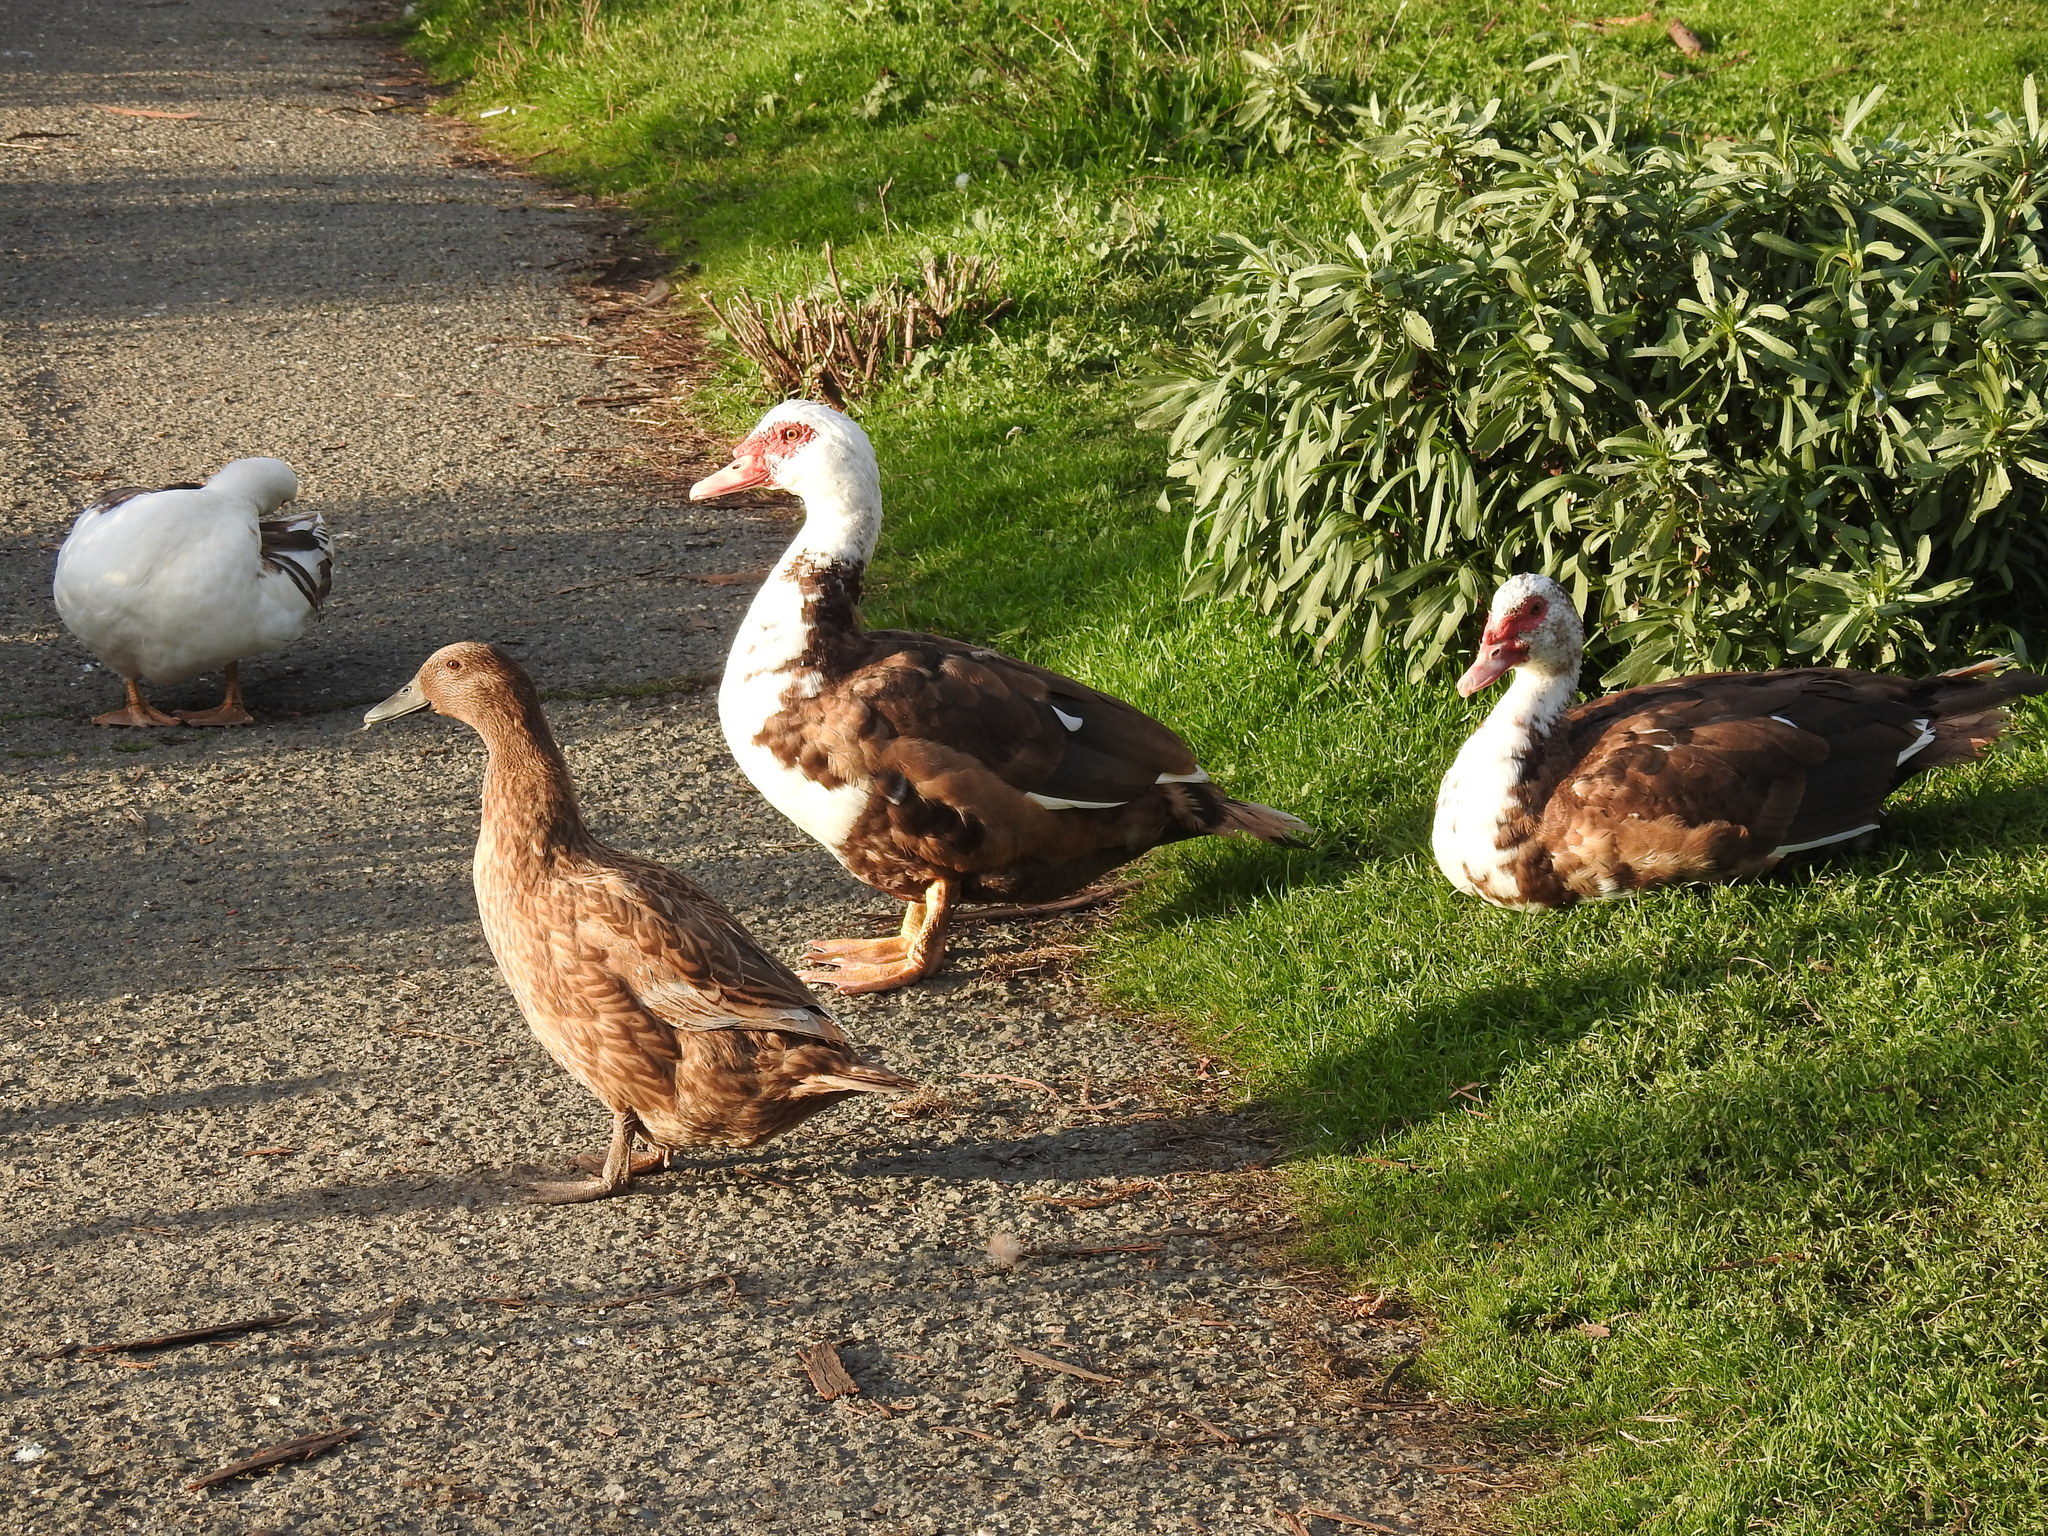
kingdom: Animalia
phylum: Chordata
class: Aves
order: Anseriformes
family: Anatidae
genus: Cairina
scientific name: Cairina moschata
